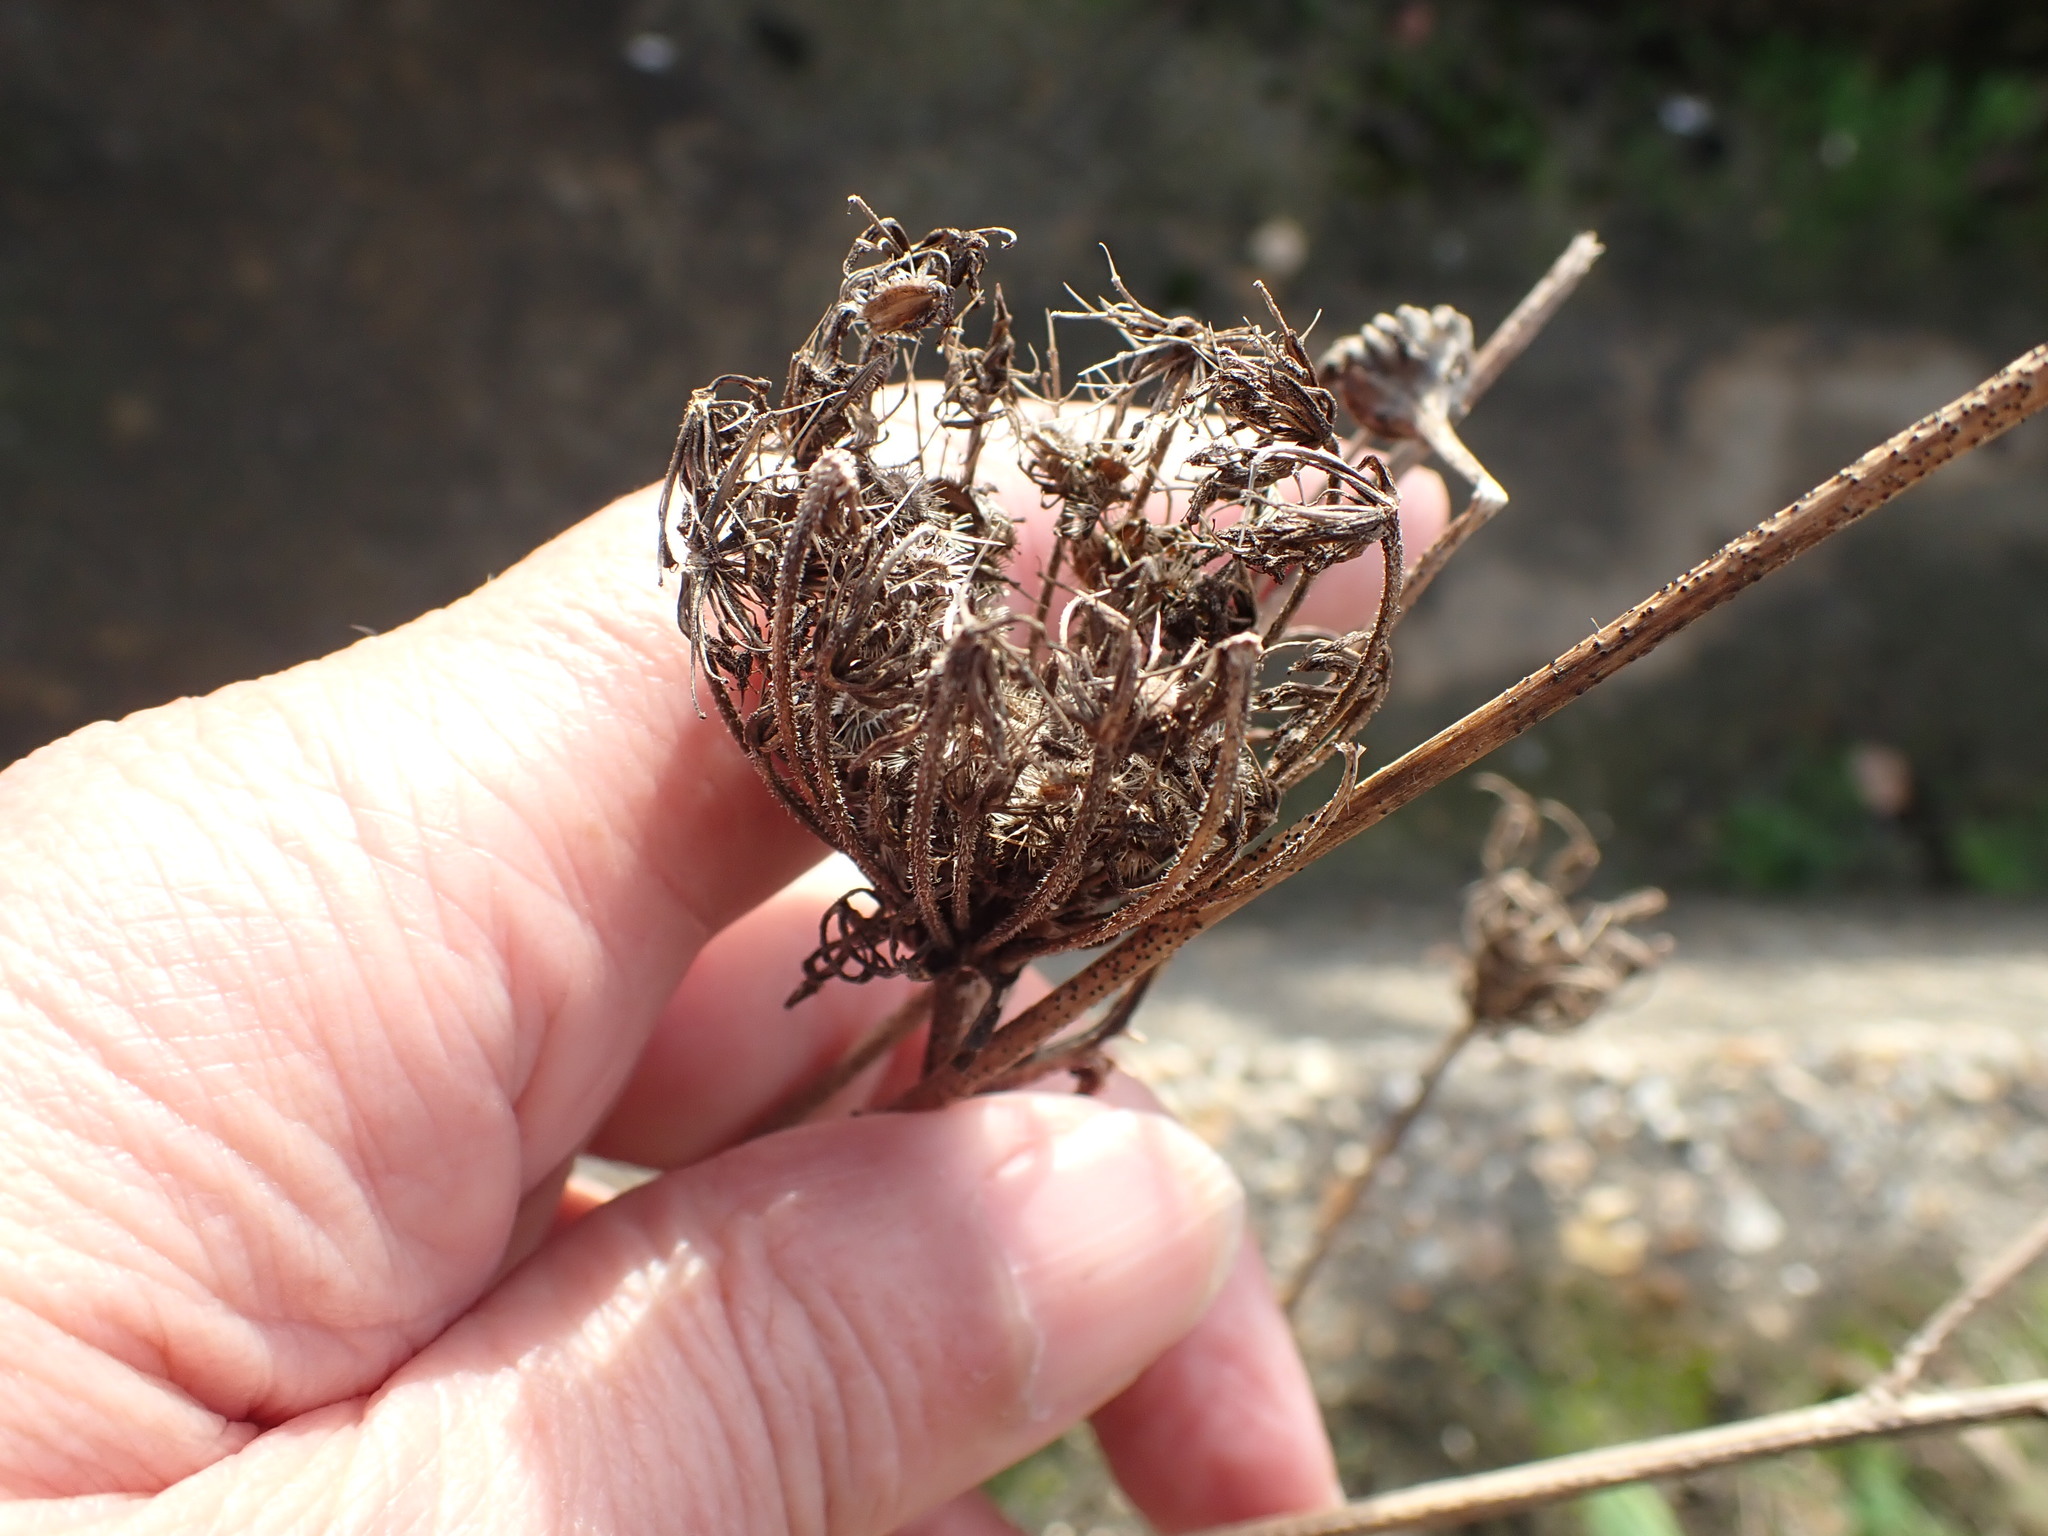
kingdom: Plantae
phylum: Tracheophyta
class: Magnoliopsida
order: Apiales
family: Apiaceae
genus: Daucus
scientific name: Daucus carota
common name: Wild carrot
